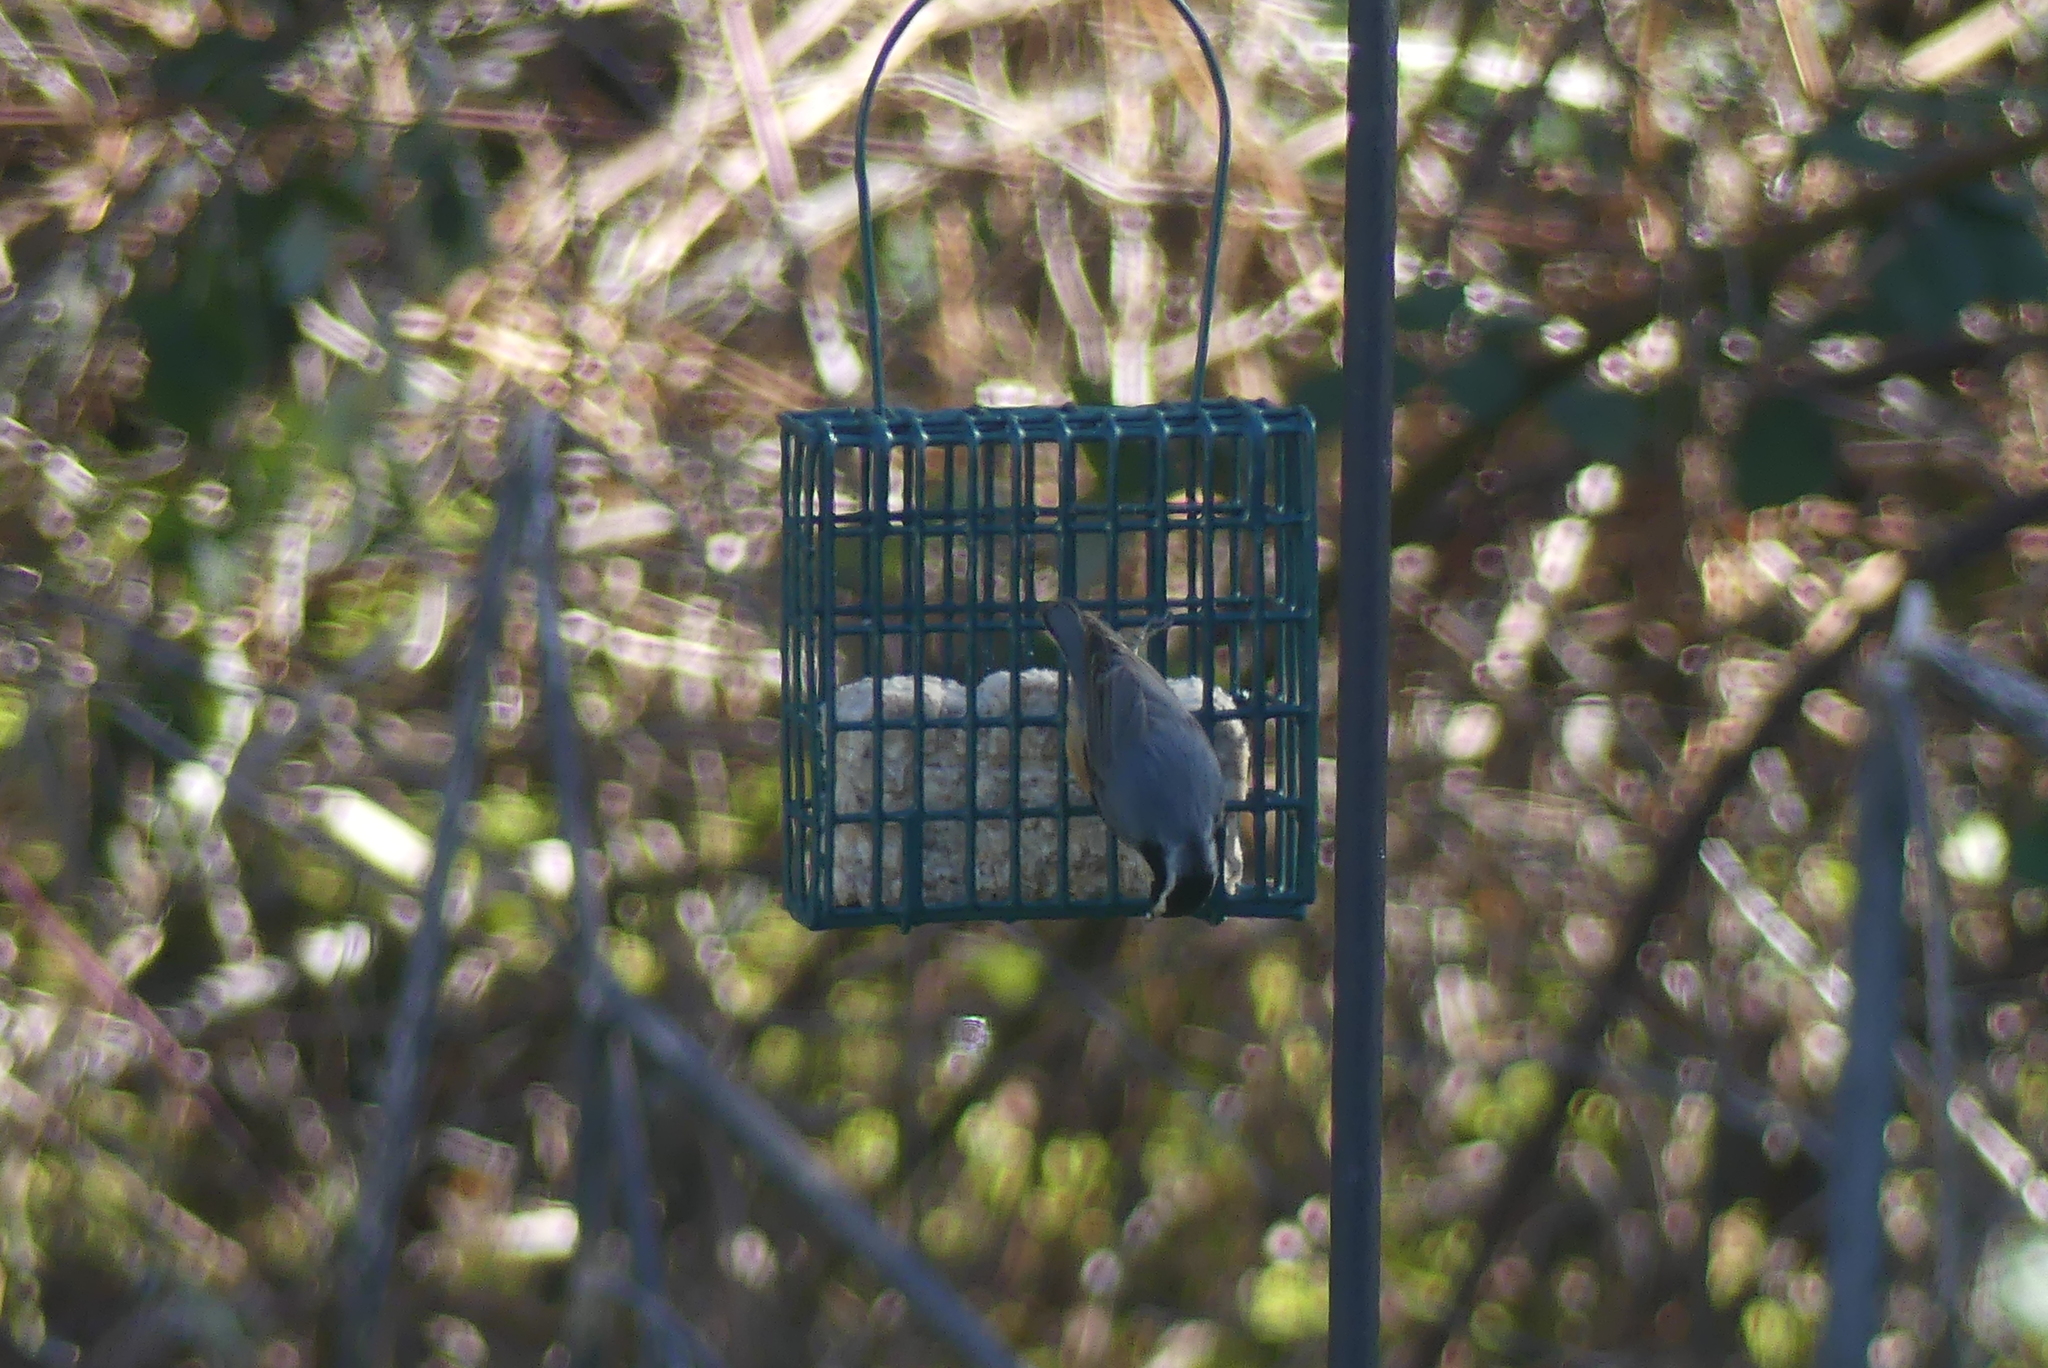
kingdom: Animalia
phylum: Chordata
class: Aves
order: Passeriformes
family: Sittidae
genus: Sitta
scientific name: Sitta canadensis
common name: Red-breasted nuthatch
